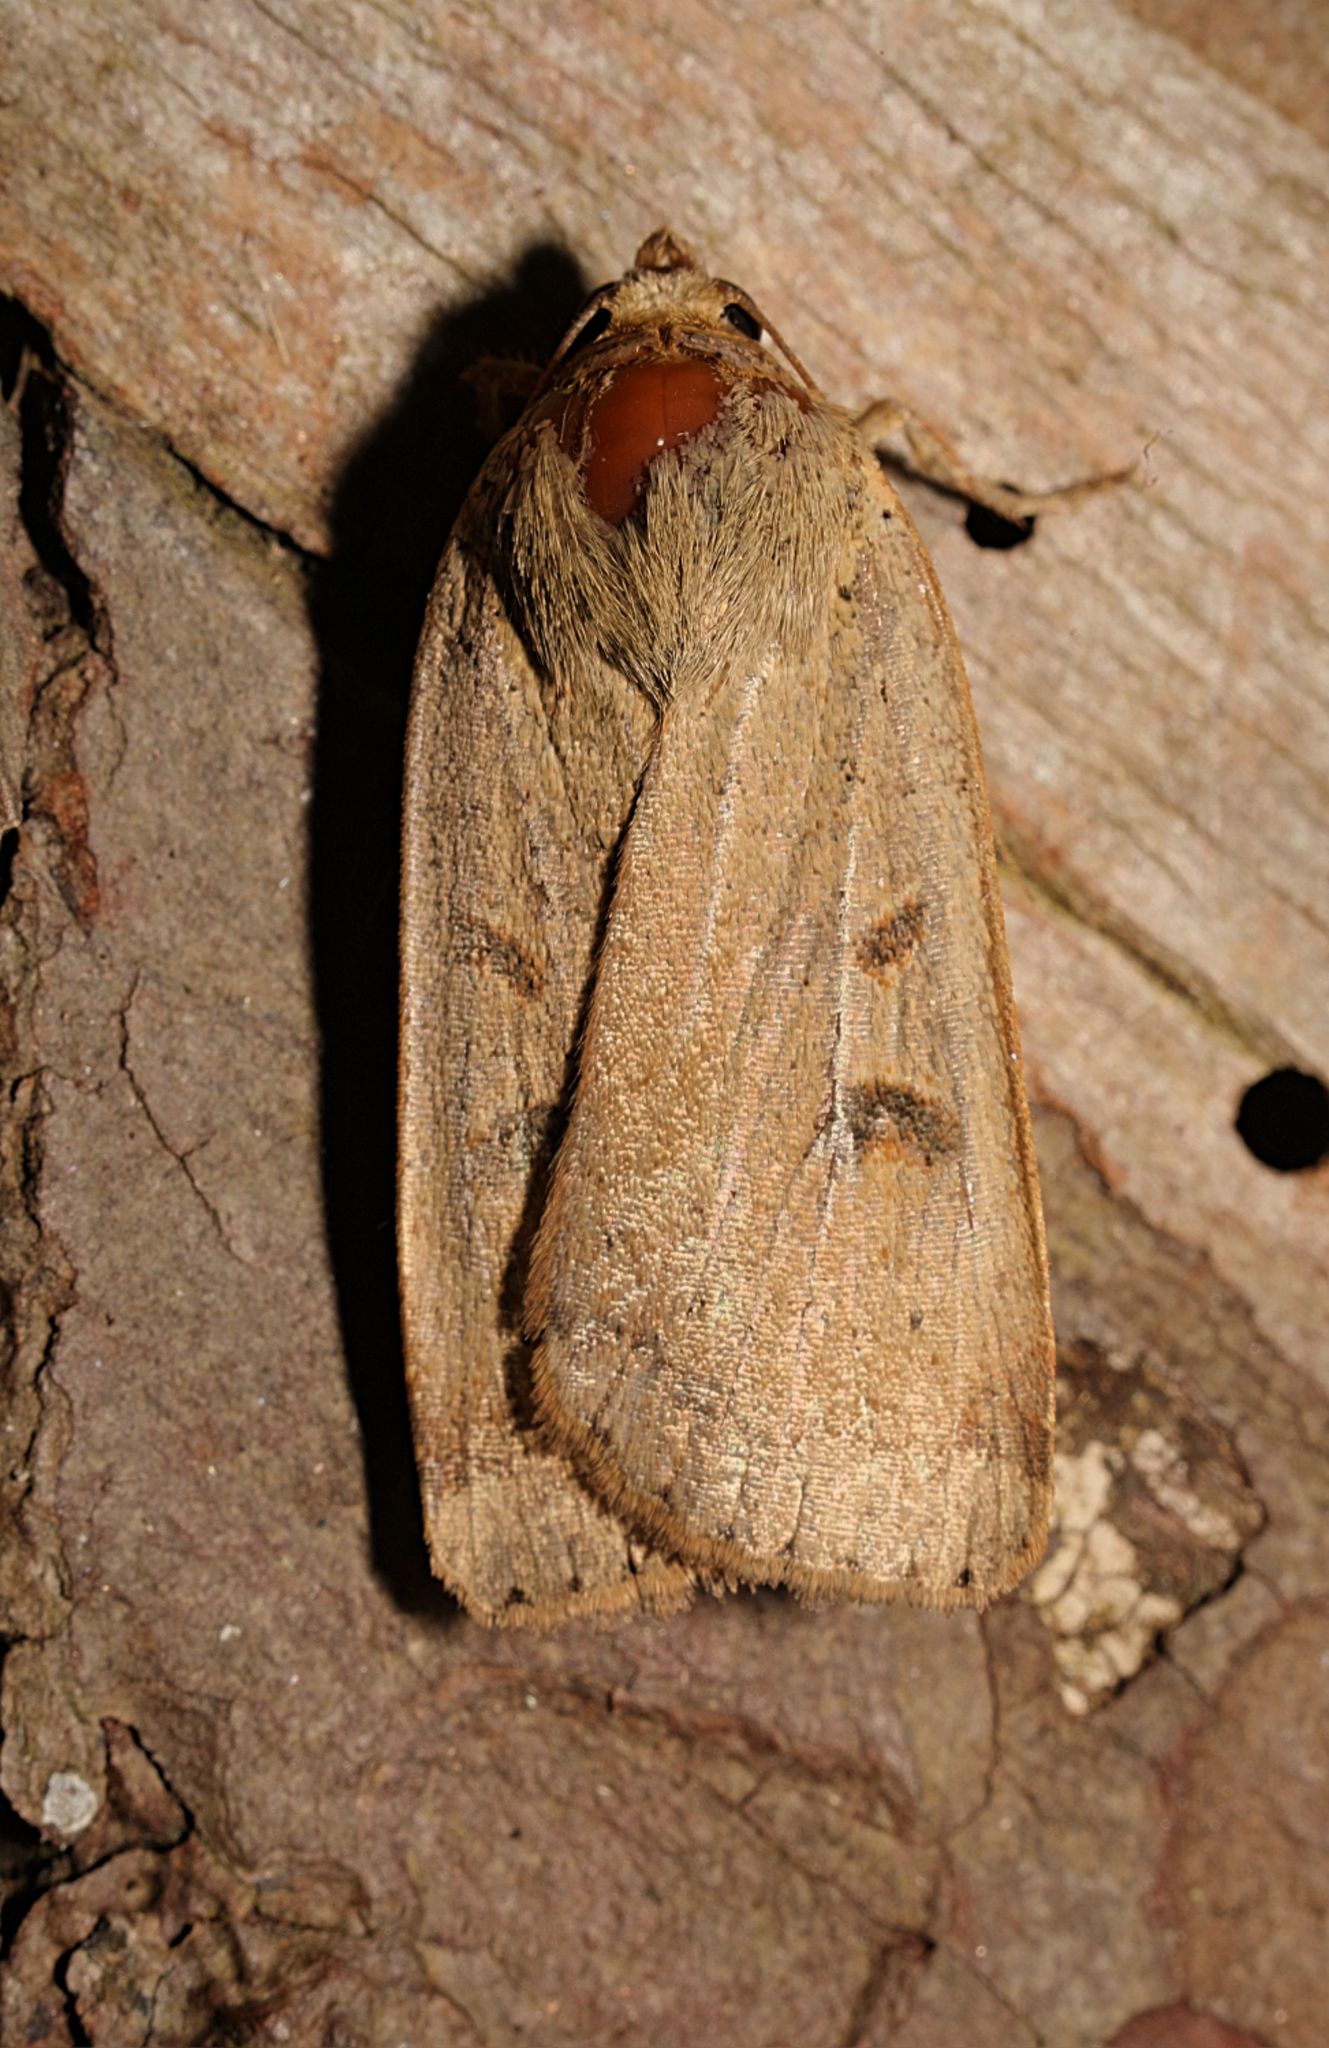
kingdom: Animalia
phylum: Arthropoda
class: Insecta
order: Lepidoptera
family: Noctuidae
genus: Noctua
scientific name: Noctua comes
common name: Lesser yellow underwing
